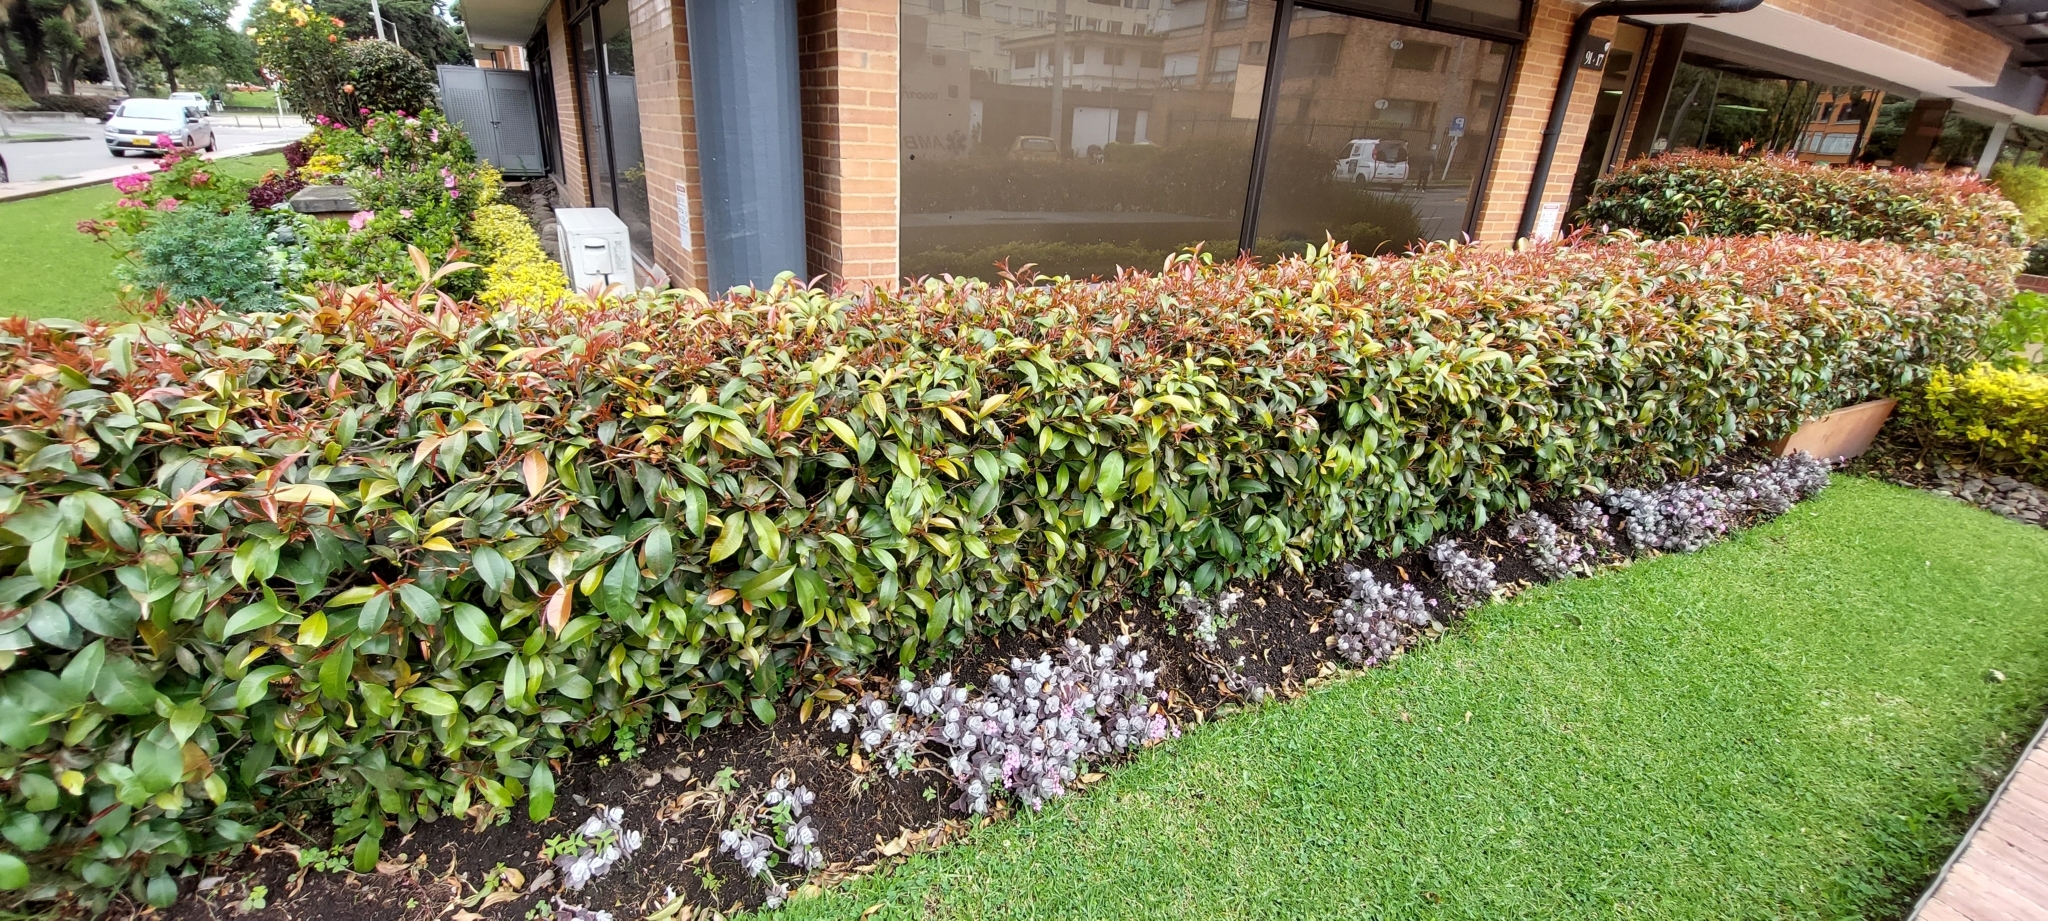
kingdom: Plantae
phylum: Tracheophyta
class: Magnoliopsida
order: Myrtales
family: Myrtaceae
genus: Syzygium
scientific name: Syzygium paniculatum
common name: Magenta lilly-pilly
